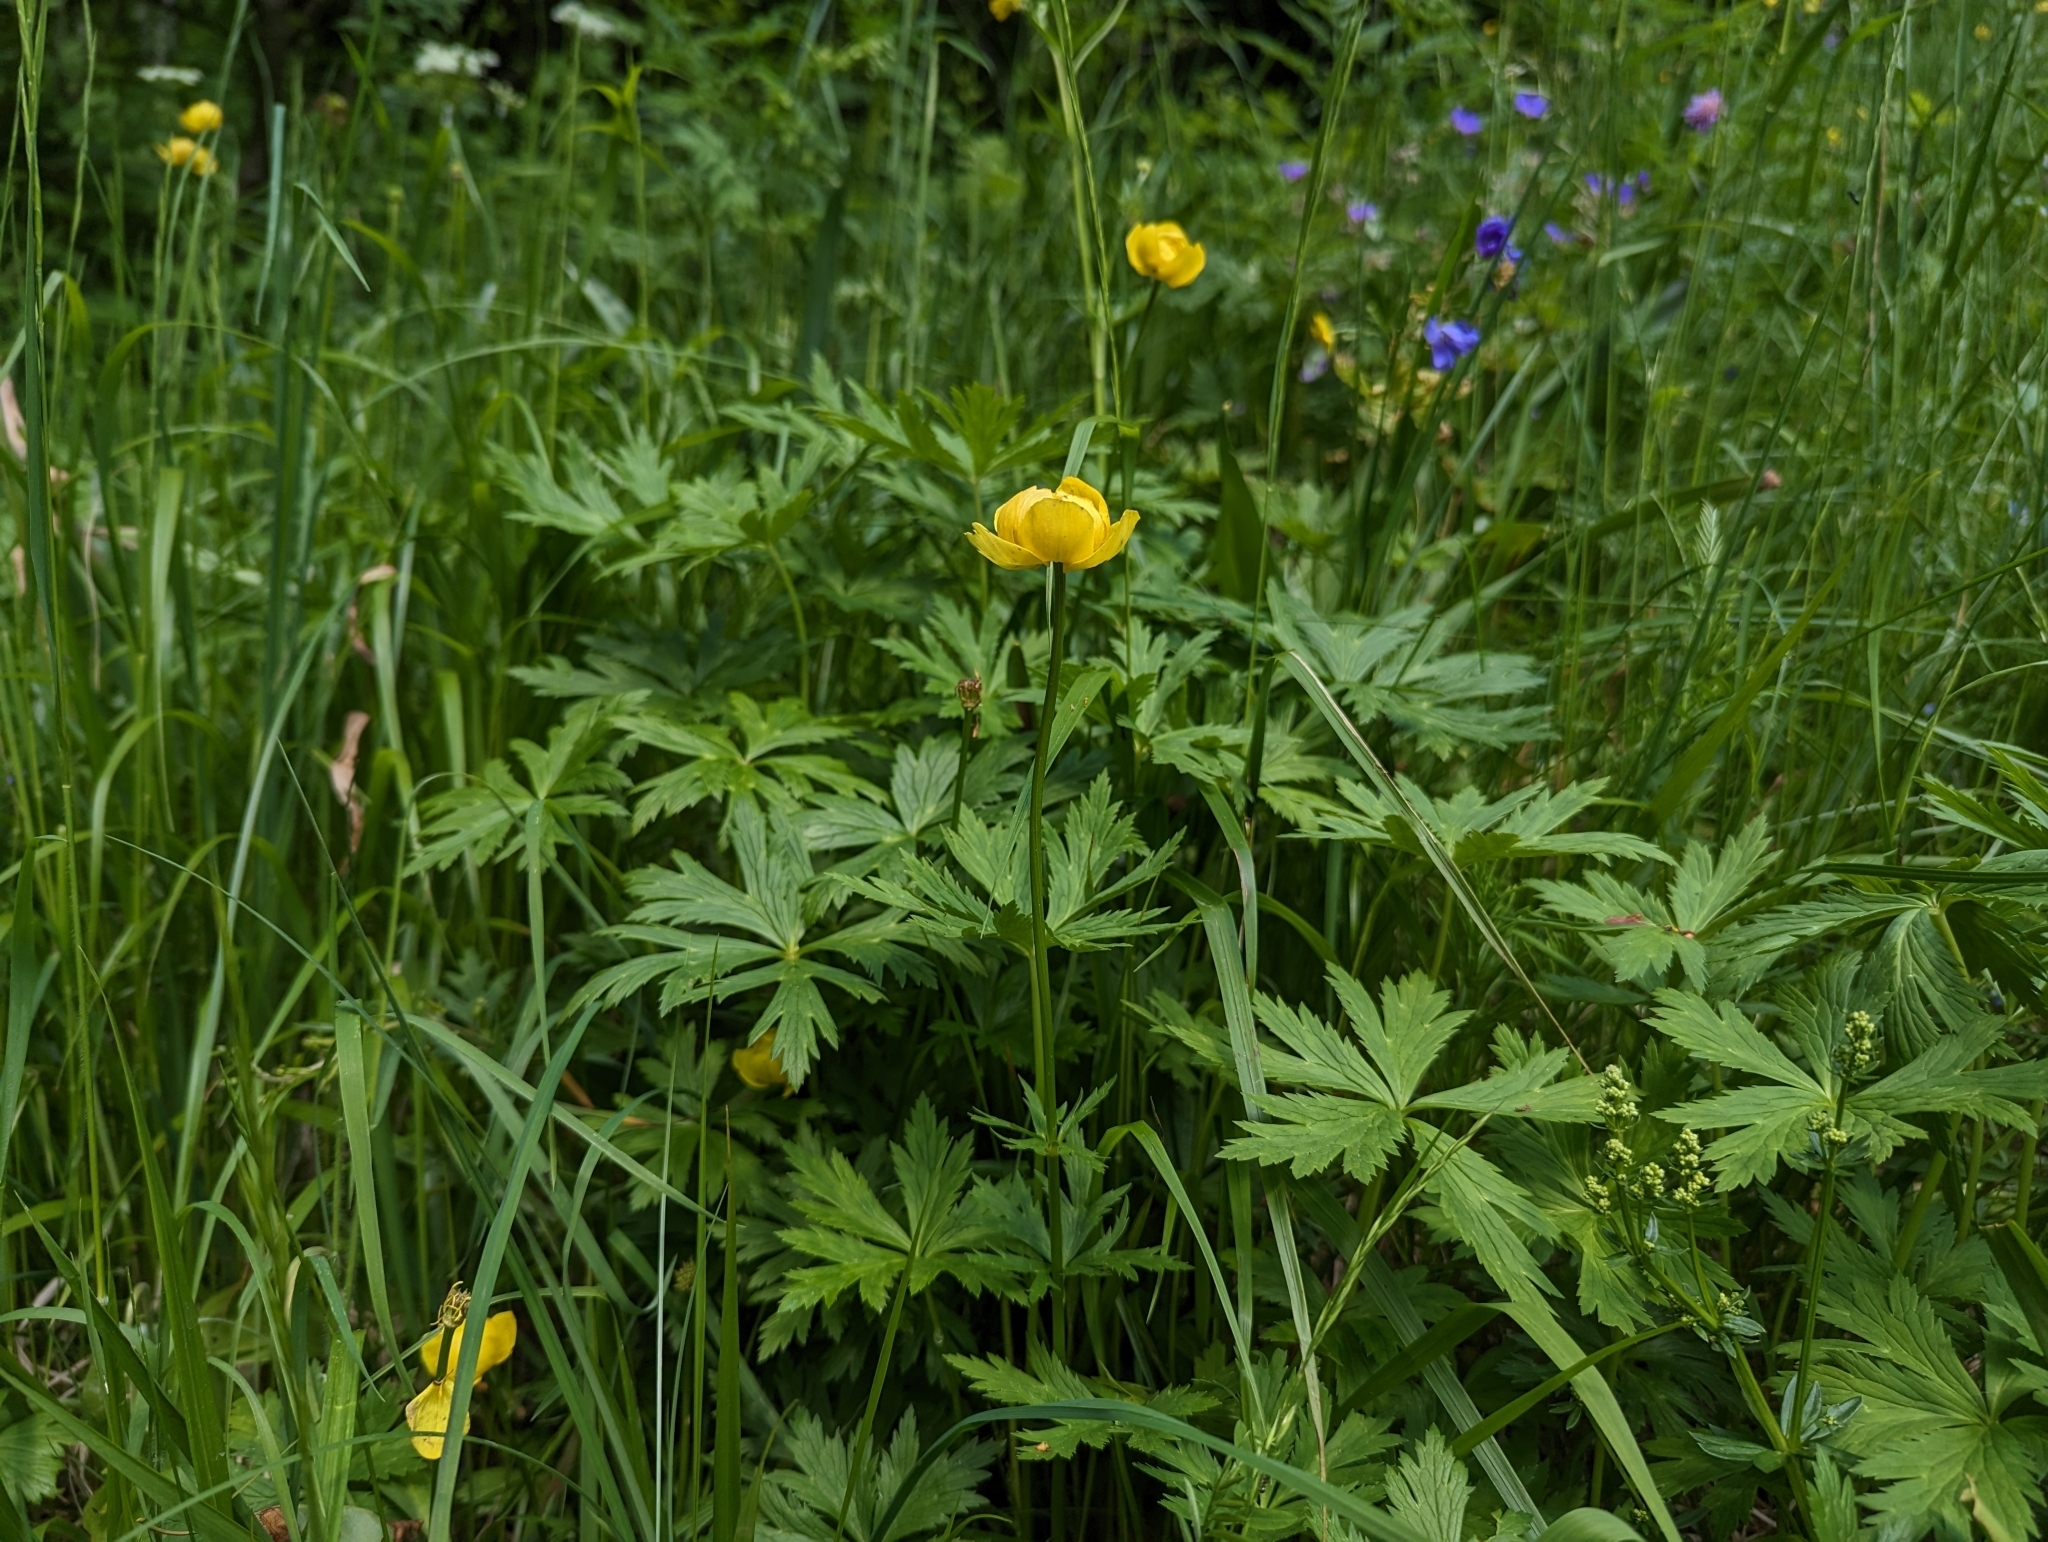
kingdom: Plantae
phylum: Tracheophyta
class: Magnoliopsida
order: Ranunculales
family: Ranunculaceae
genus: Trollius
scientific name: Trollius europaeus
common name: European globeflower
